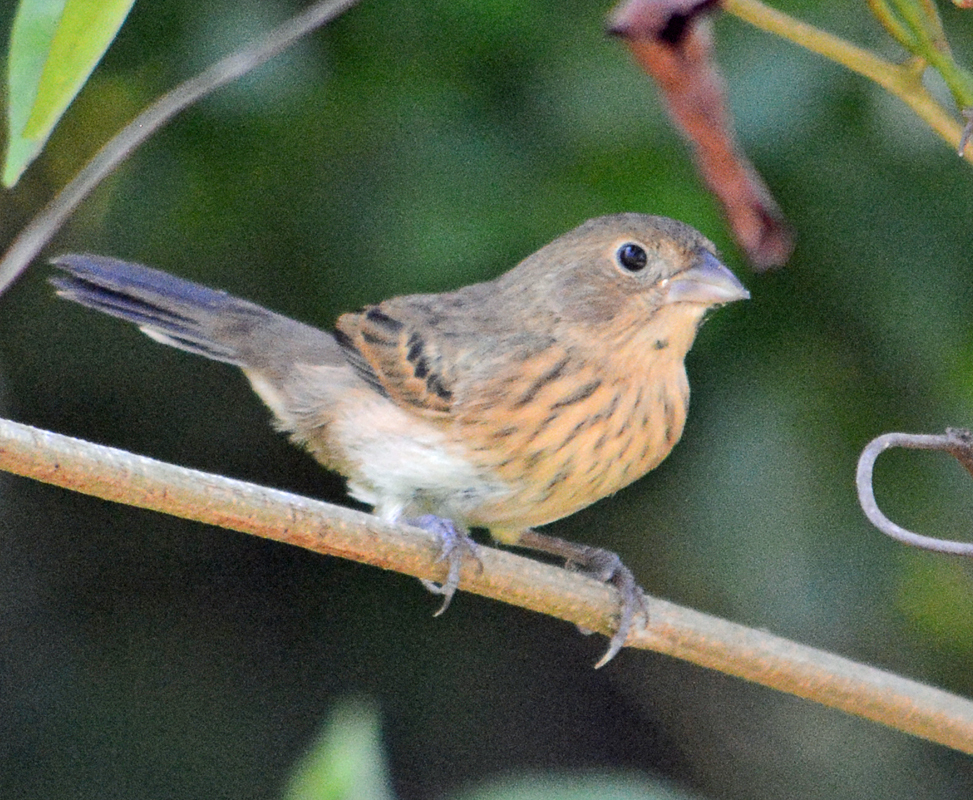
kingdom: Animalia
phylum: Chordata
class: Aves
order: Passeriformes
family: Thraupidae
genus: Volatinia
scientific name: Volatinia jacarina
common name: Blue-black grassquit
